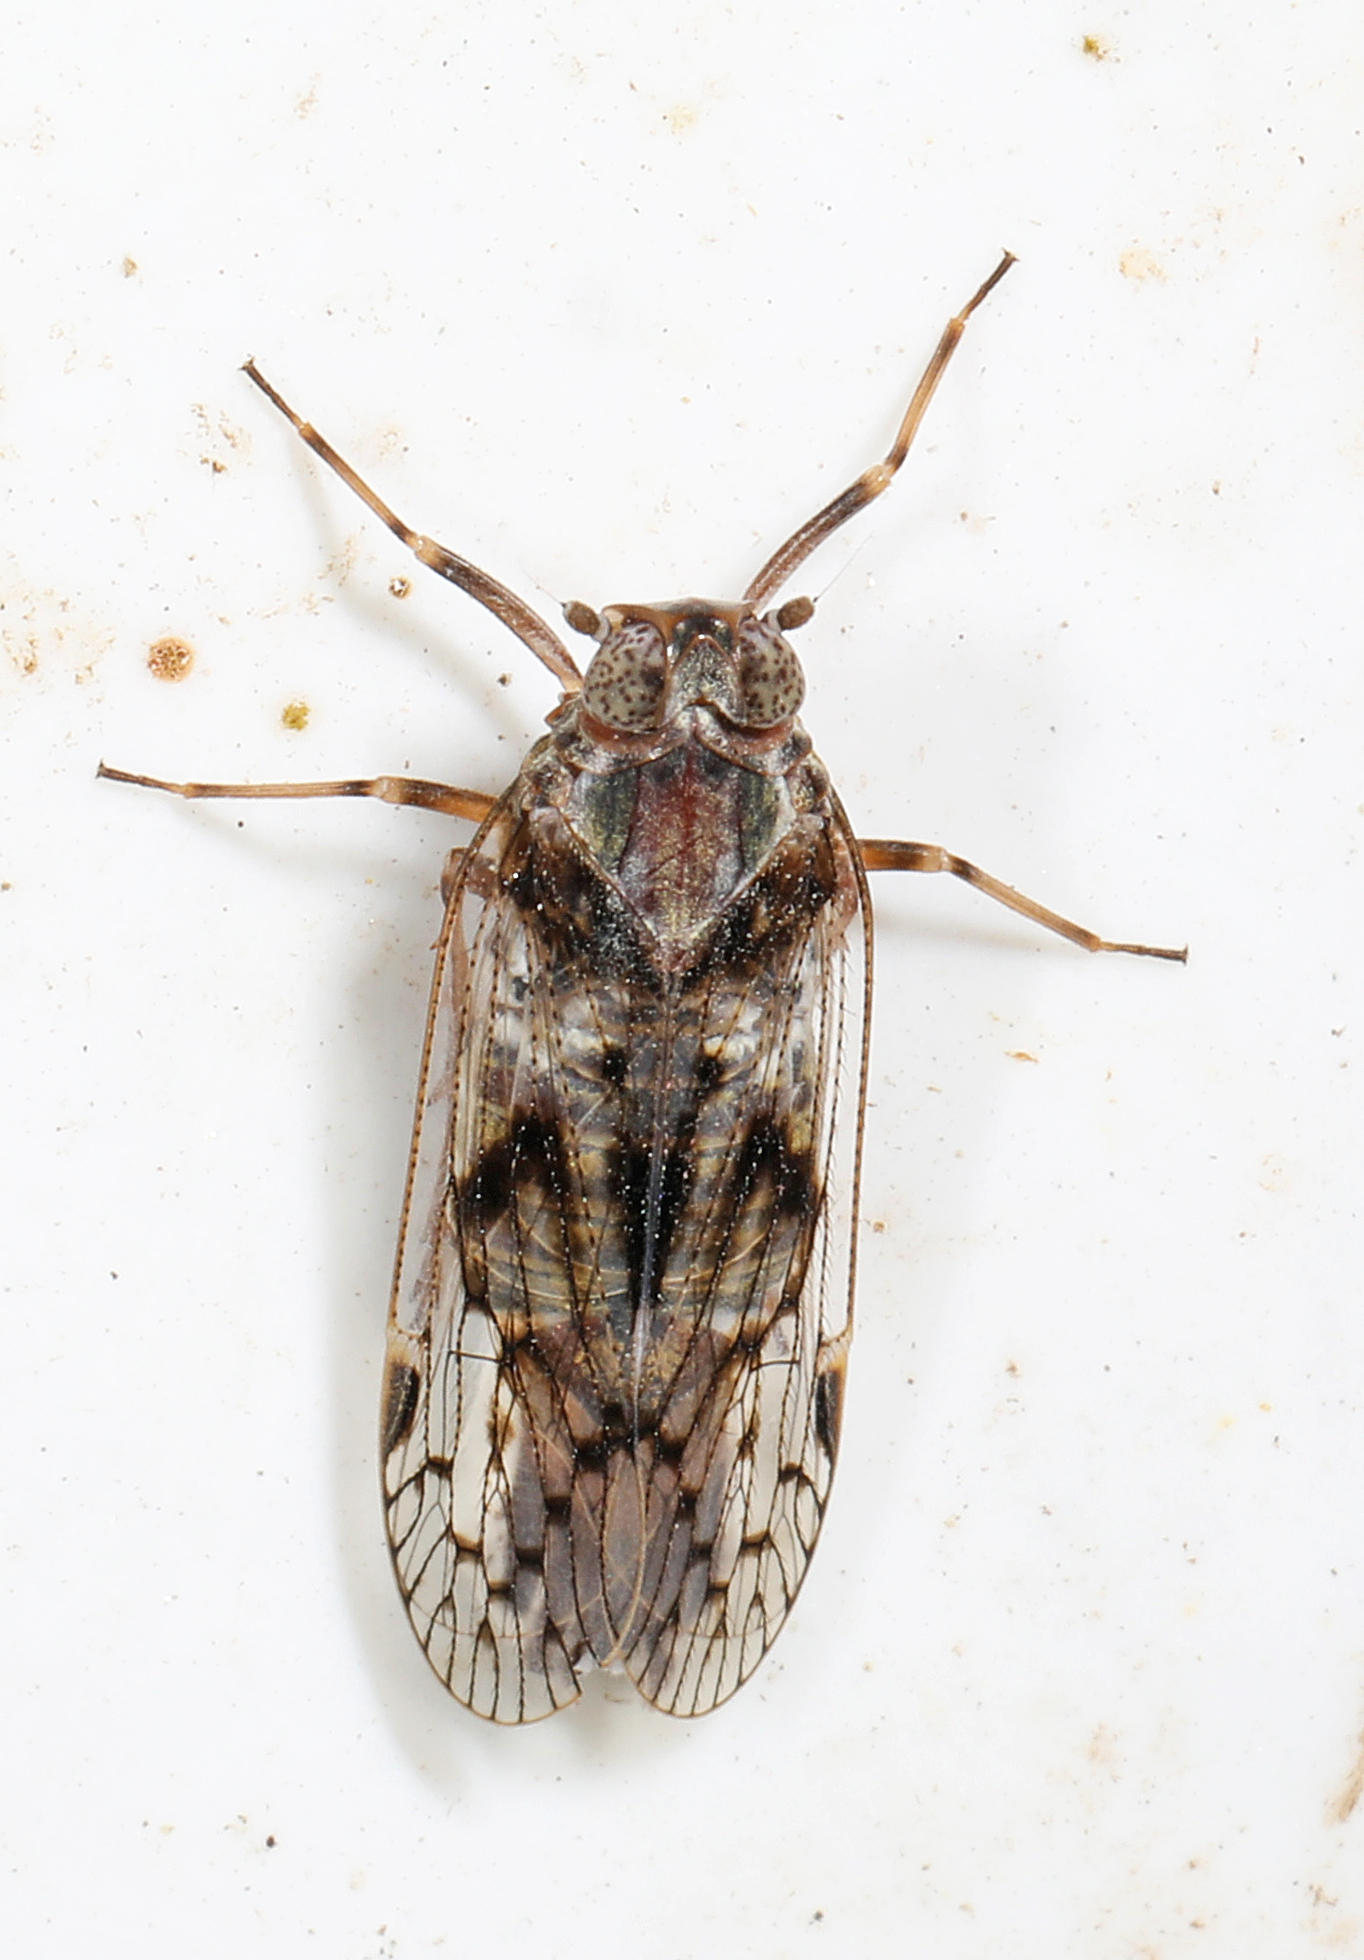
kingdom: Animalia
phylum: Arthropoda
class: Insecta
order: Hemiptera
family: Cixiidae
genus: Melanoliarus
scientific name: Melanoliarus aridus
